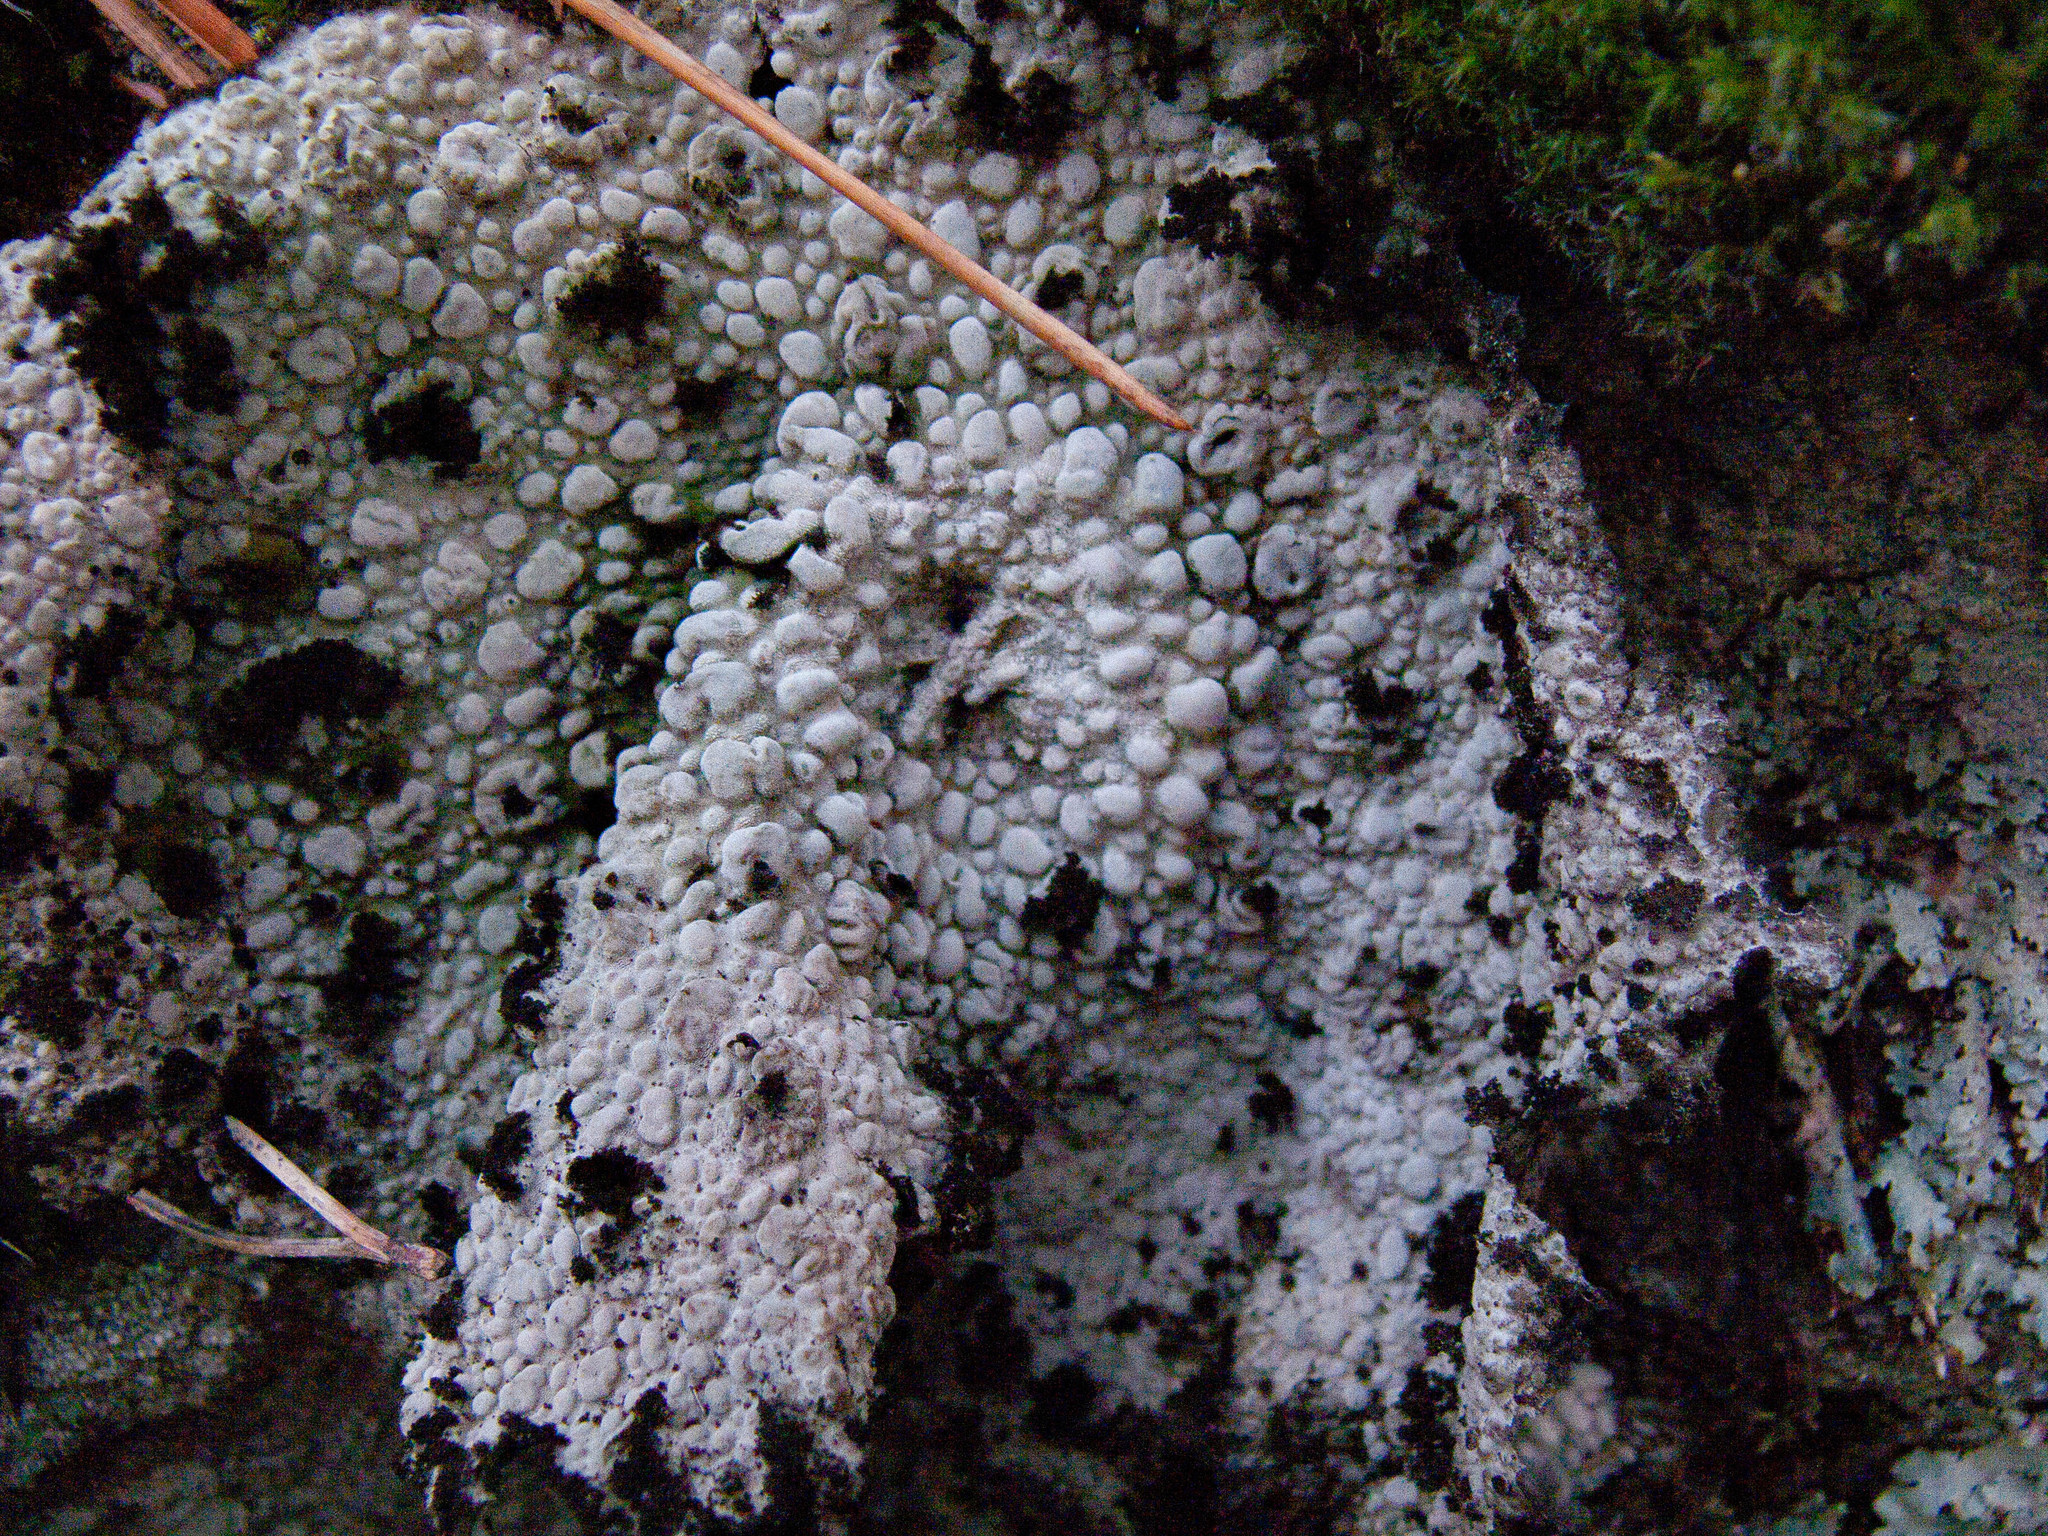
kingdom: Fungi
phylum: Ascomycota
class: Lecanoromycetes
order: Umbilicariales
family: Umbilicariaceae
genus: Lasallia
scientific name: Lasallia pustulata
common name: Blistered toadskin lichen
